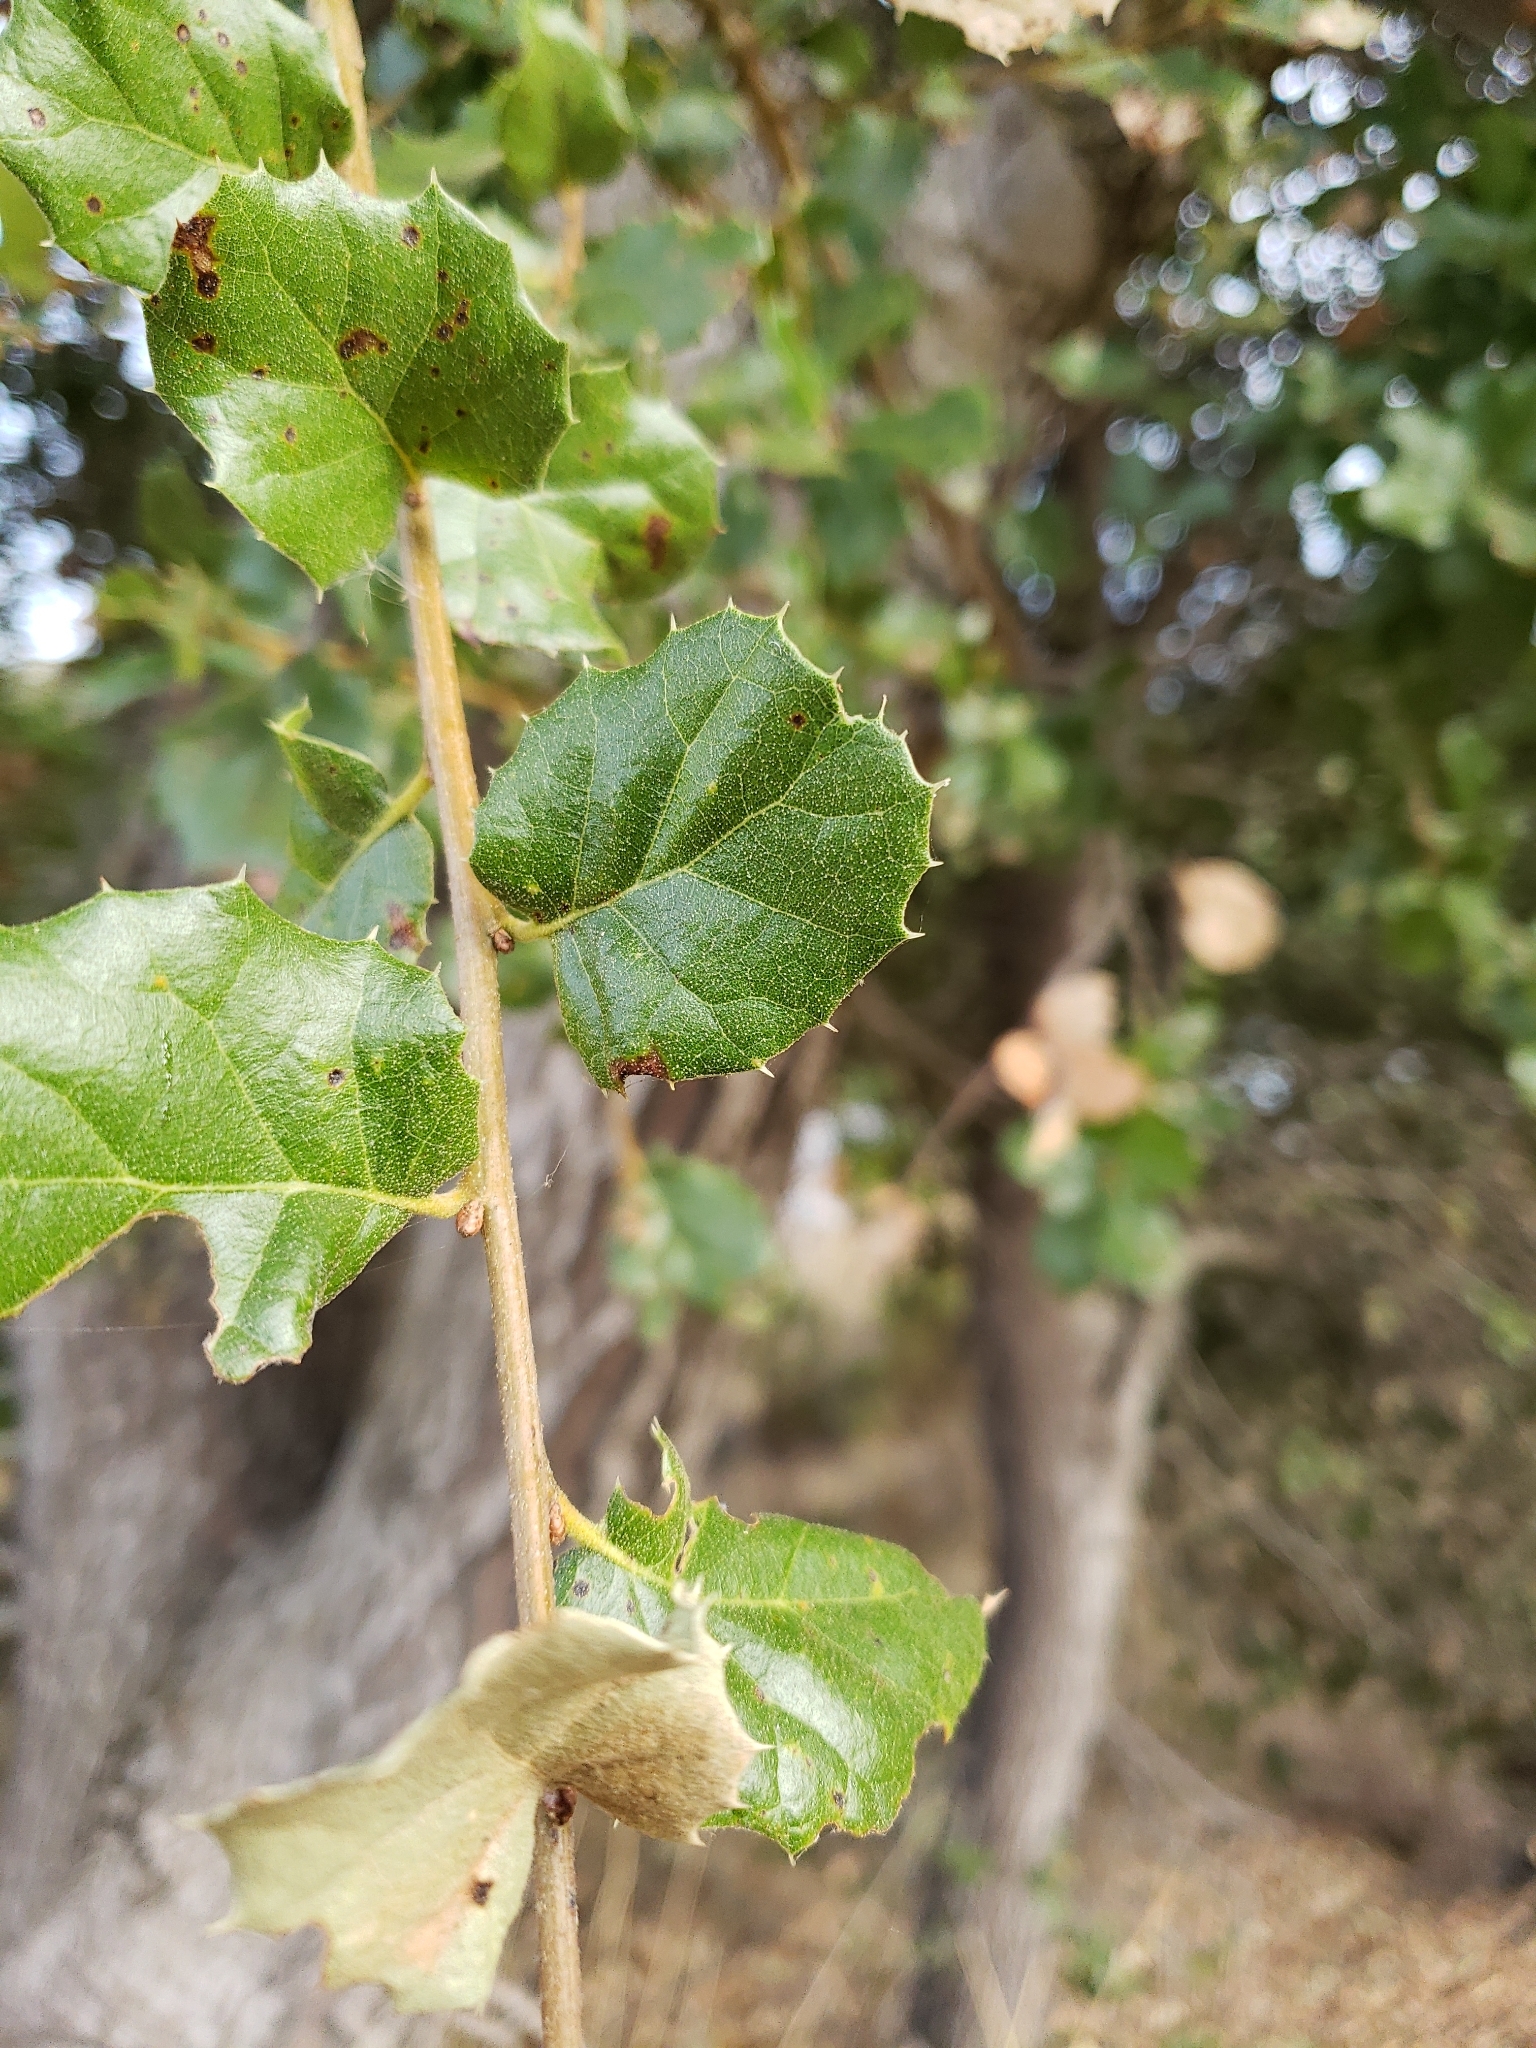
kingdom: Plantae
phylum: Tracheophyta
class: Magnoliopsida
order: Fagales
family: Fagaceae
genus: Quercus
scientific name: Quercus agrifolia
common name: California live oak
